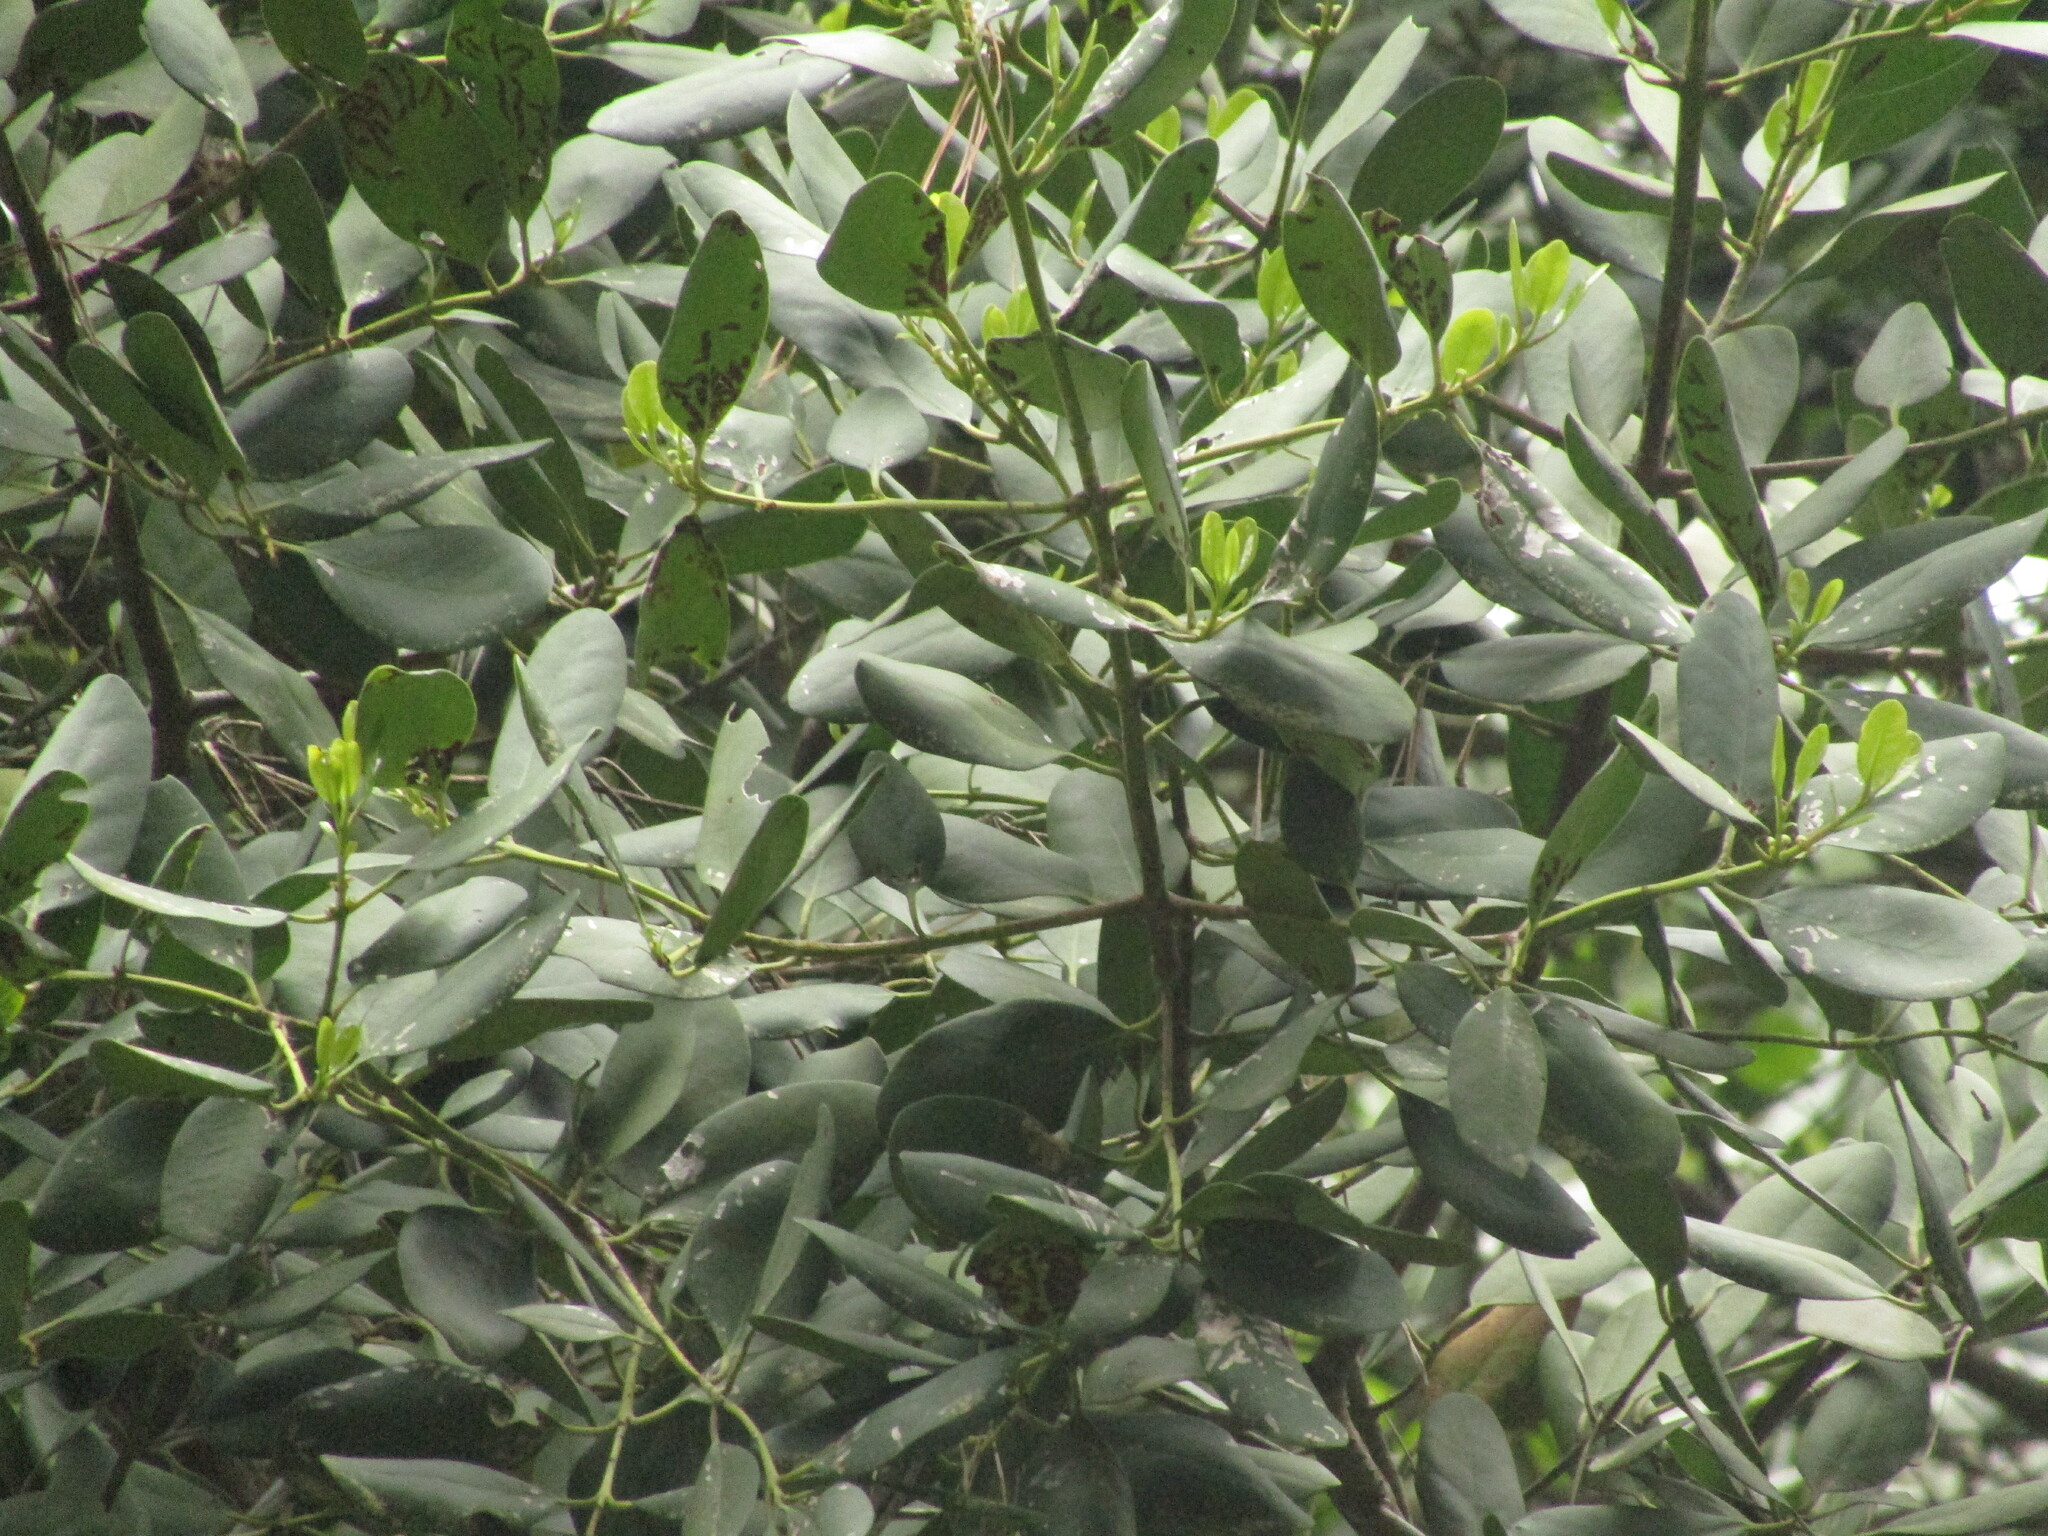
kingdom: Plantae
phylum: Tracheophyta
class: Magnoliopsida
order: Laurales
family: Gomortegaceae
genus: Gomortega
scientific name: Gomortega keule
